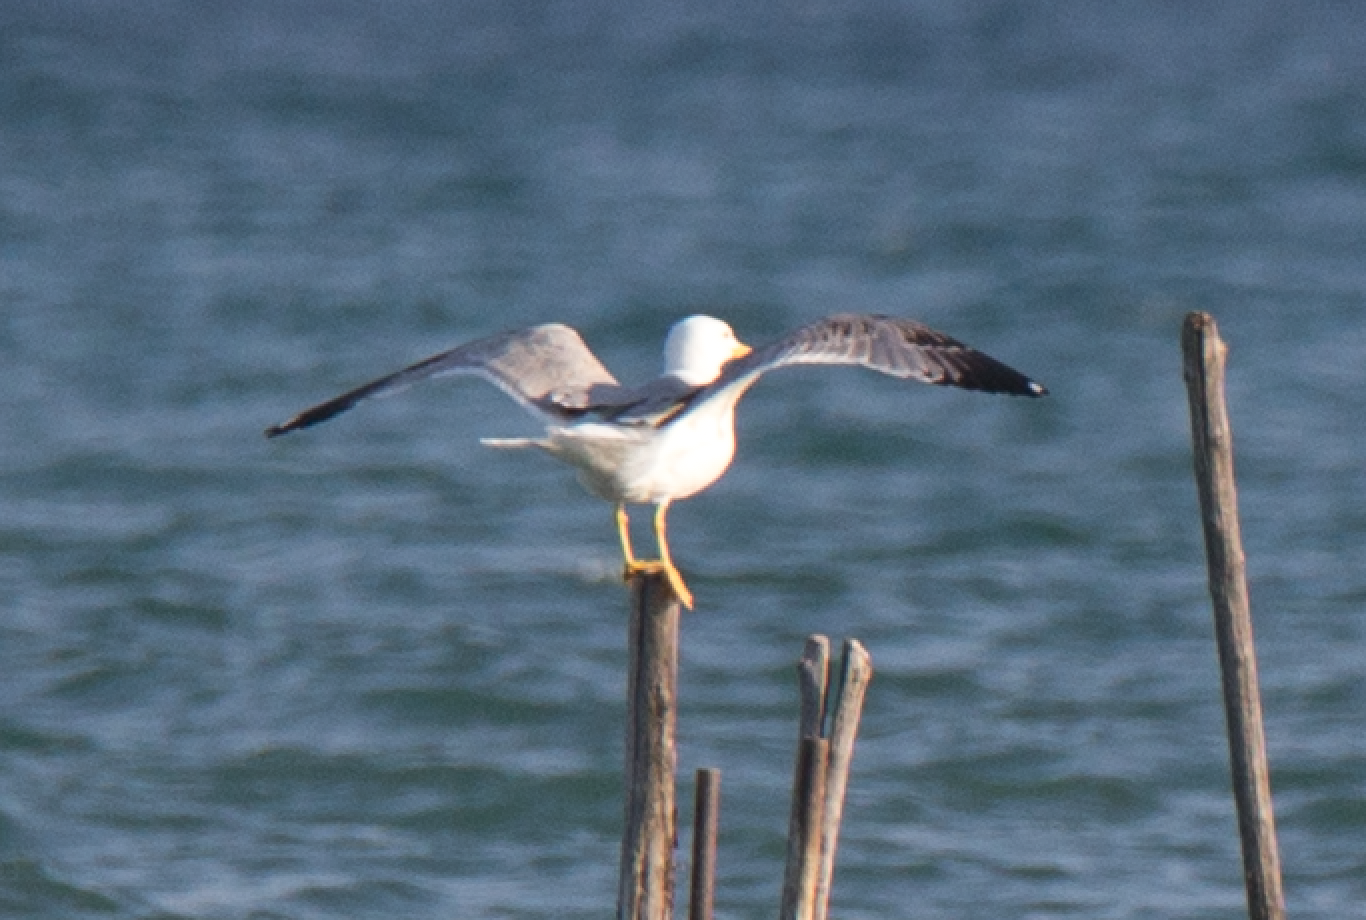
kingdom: Animalia
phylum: Chordata
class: Aves
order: Charadriiformes
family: Laridae
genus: Larus
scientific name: Larus michahellis
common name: Yellow-legged gull
